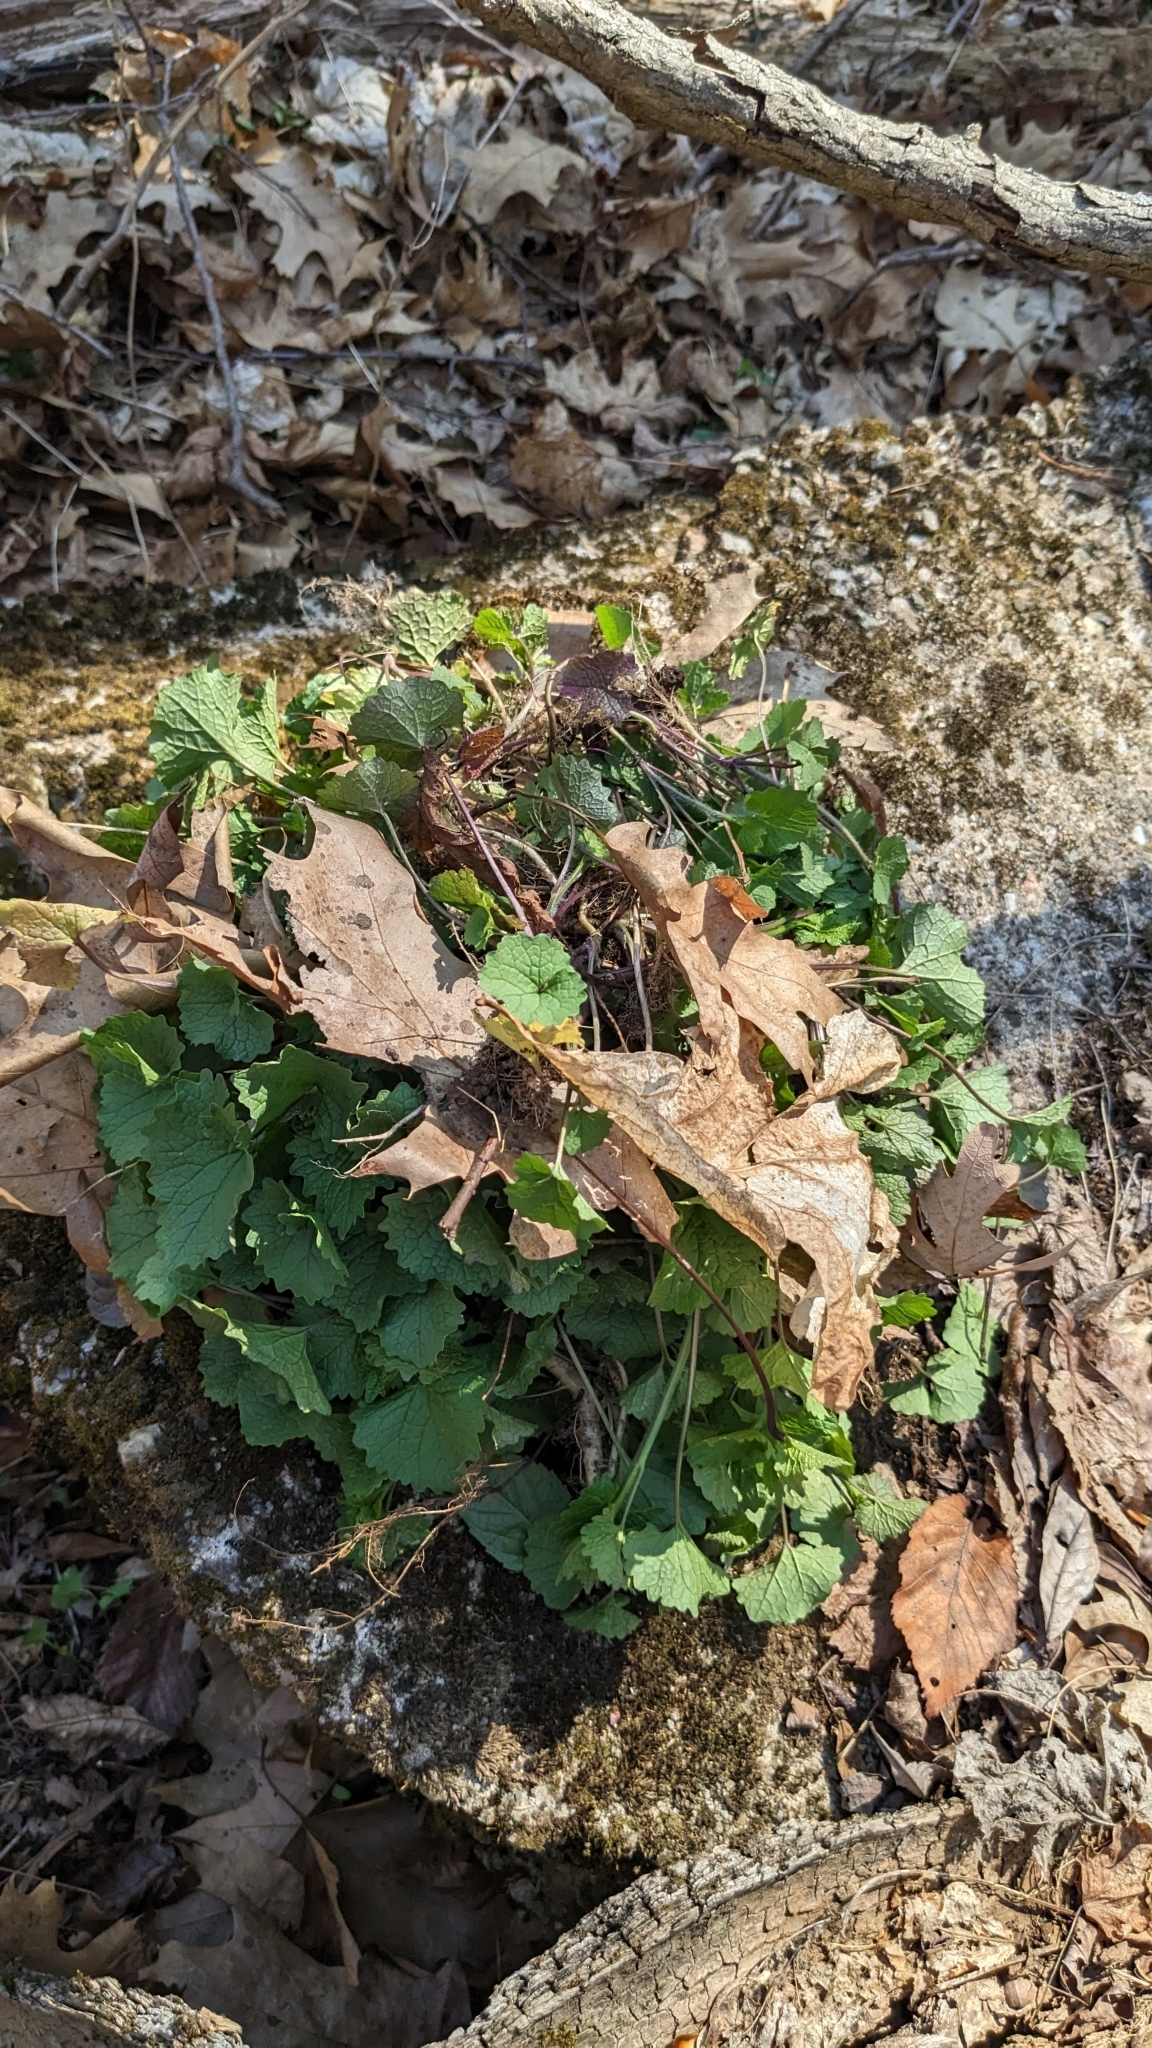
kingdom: Plantae
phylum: Tracheophyta
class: Magnoliopsida
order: Brassicales
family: Brassicaceae
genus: Alliaria
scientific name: Alliaria petiolata
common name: Garlic mustard
